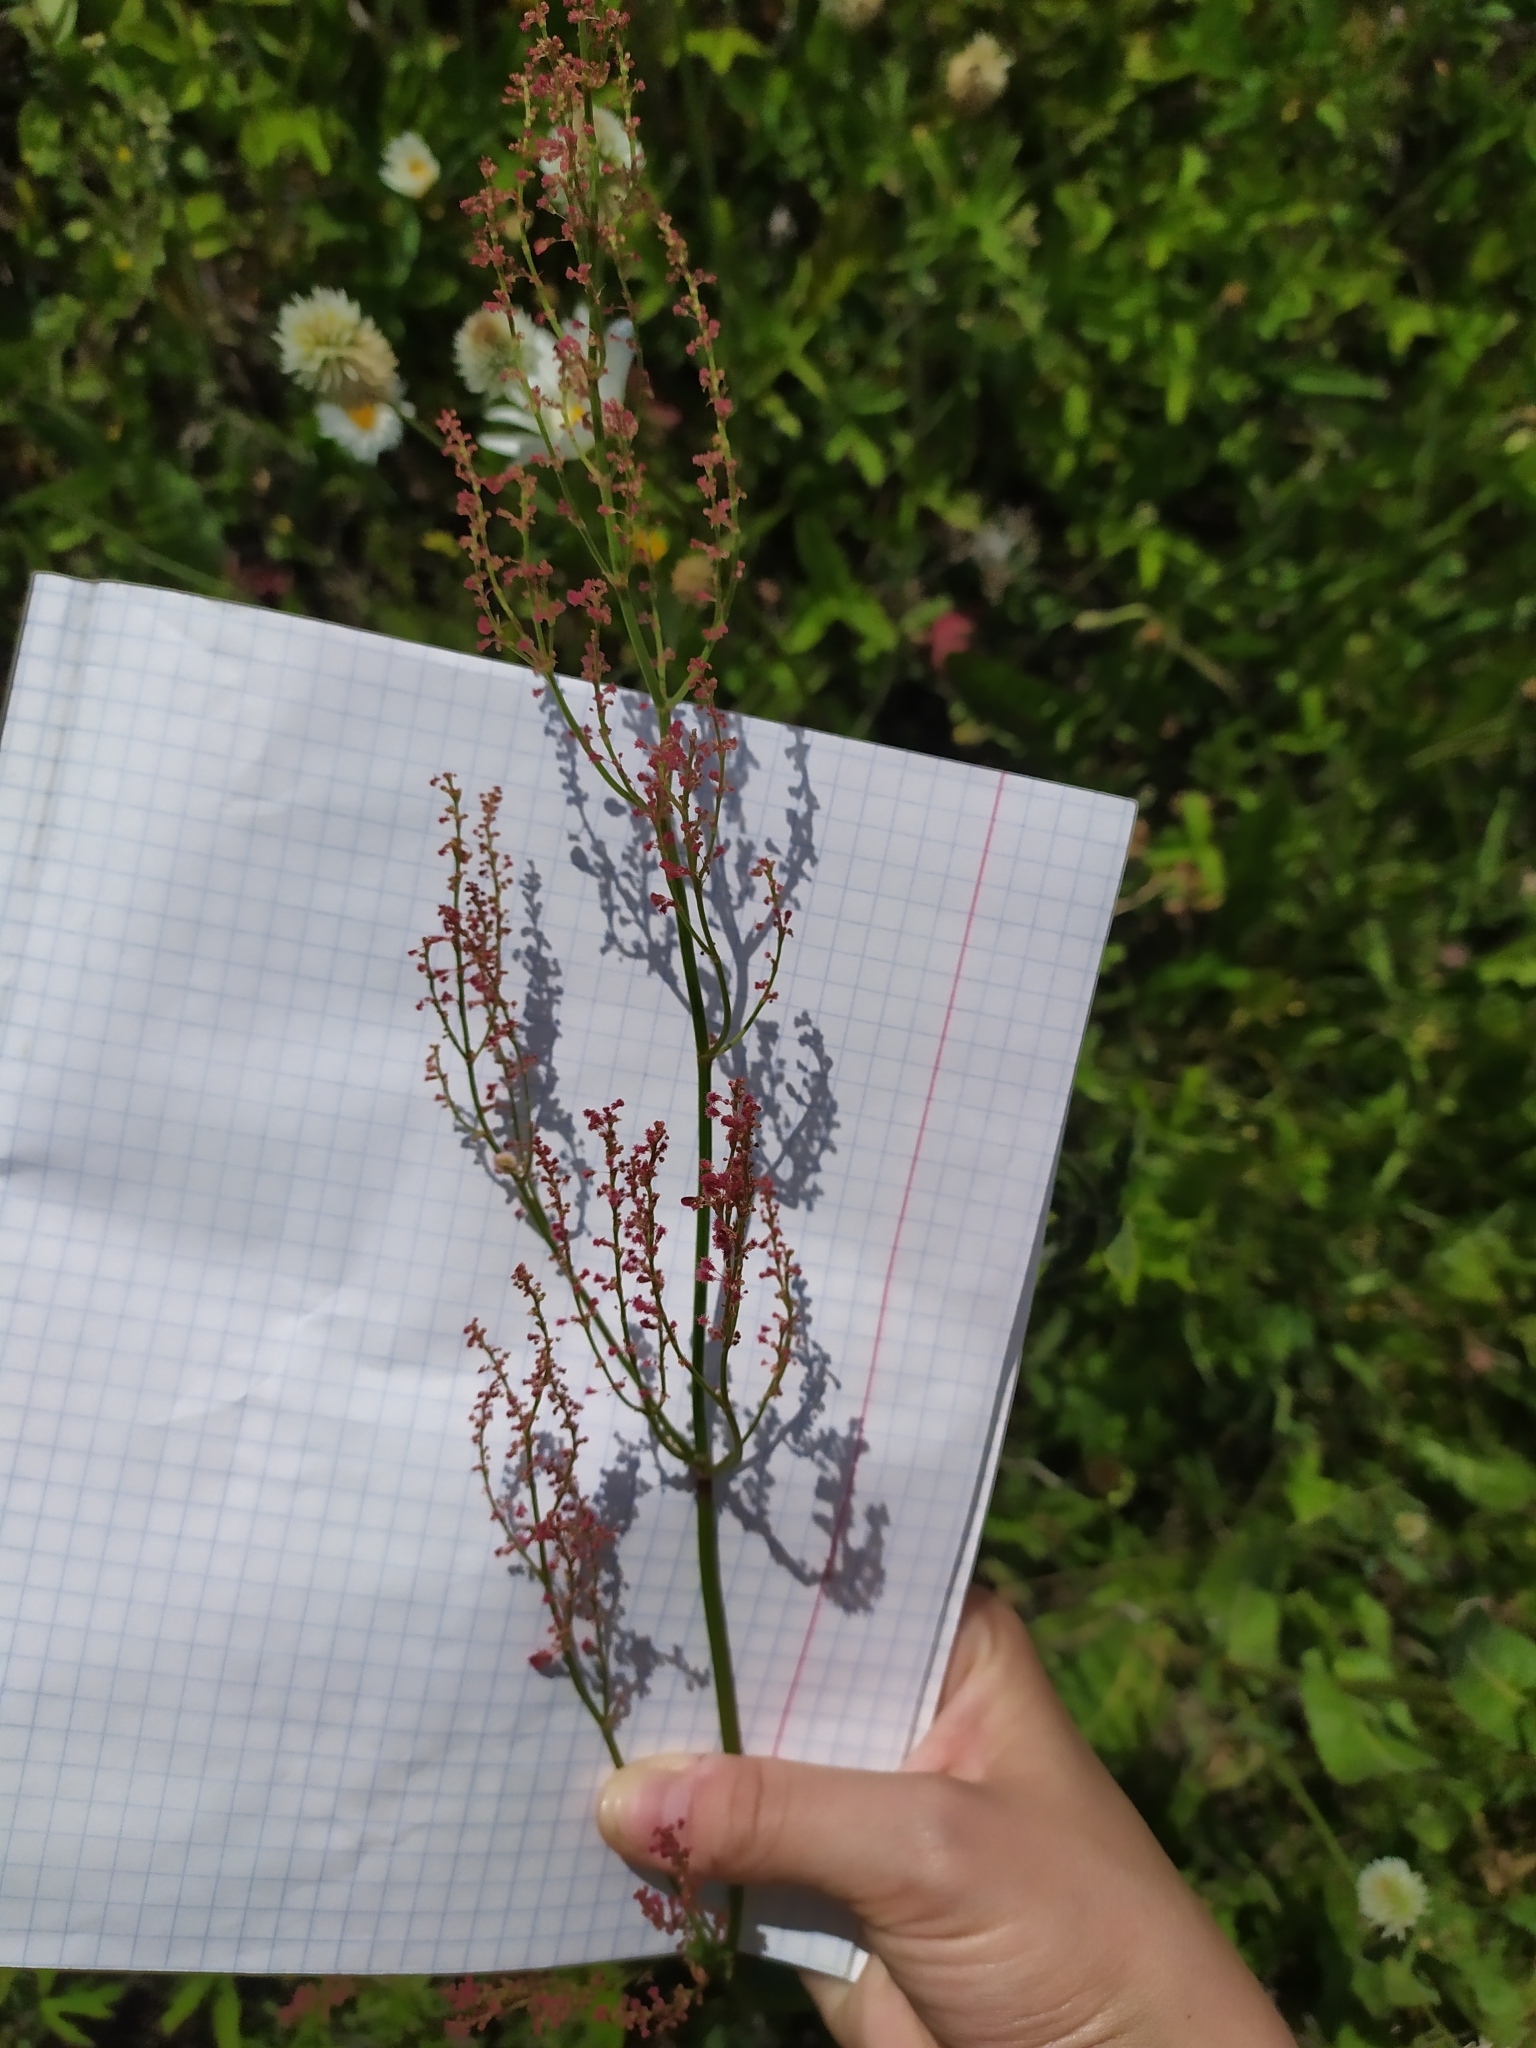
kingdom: Plantae
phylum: Tracheophyta
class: Magnoliopsida
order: Caryophyllales
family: Polygonaceae
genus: Rumex
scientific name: Rumex thyrsiflorus
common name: Garden sorrel
